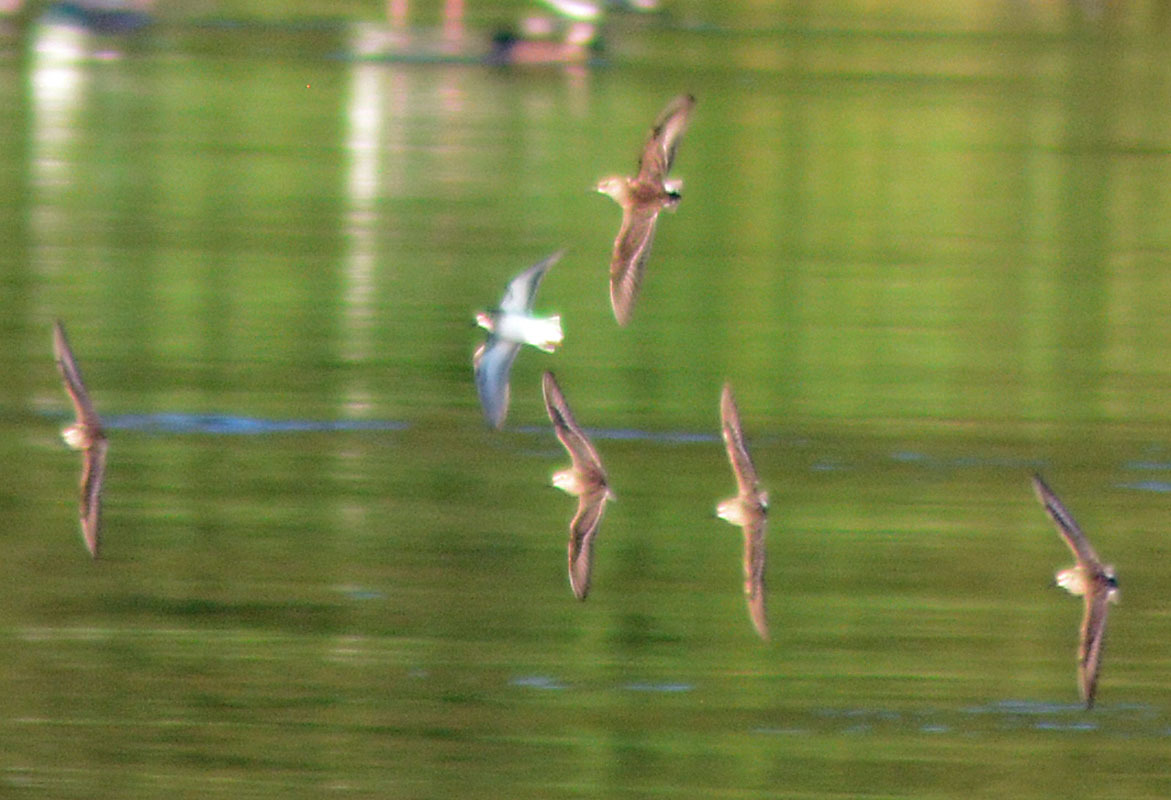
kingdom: Animalia
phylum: Chordata
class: Aves
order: Charadriiformes
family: Scolopacidae
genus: Calidris
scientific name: Calidris minutilla
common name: Least sandpiper
